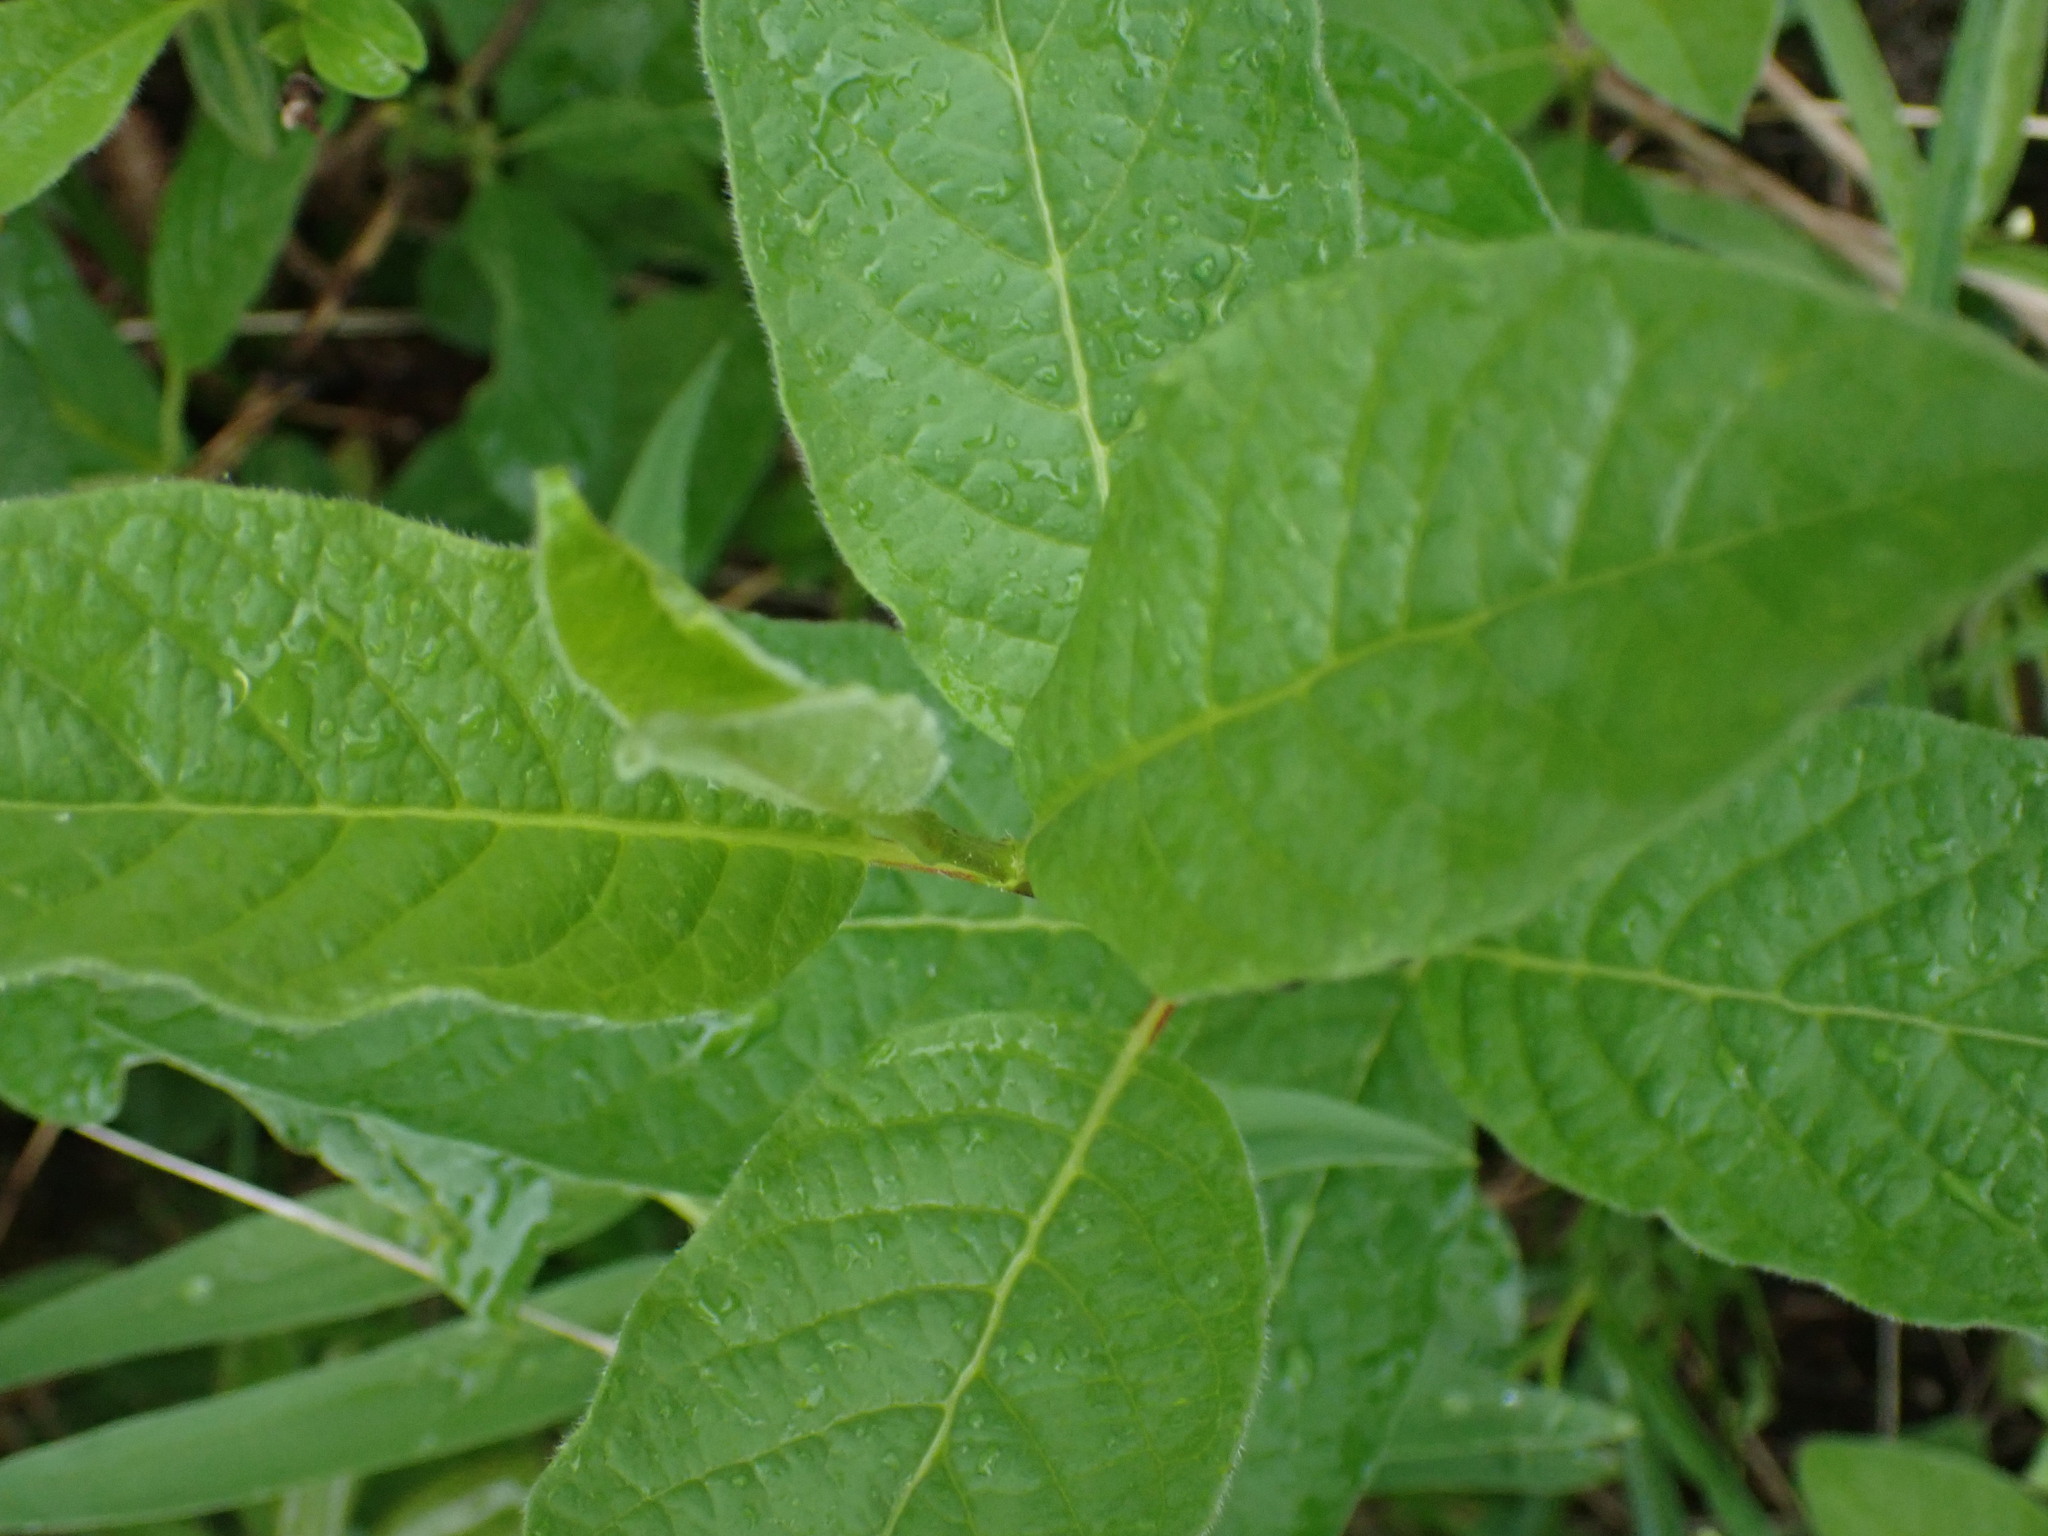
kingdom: Plantae
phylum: Tracheophyta
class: Magnoliopsida
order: Dipsacales
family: Caprifoliaceae
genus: Lonicera
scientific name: Lonicera involucrata
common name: Californian honeysuckle
